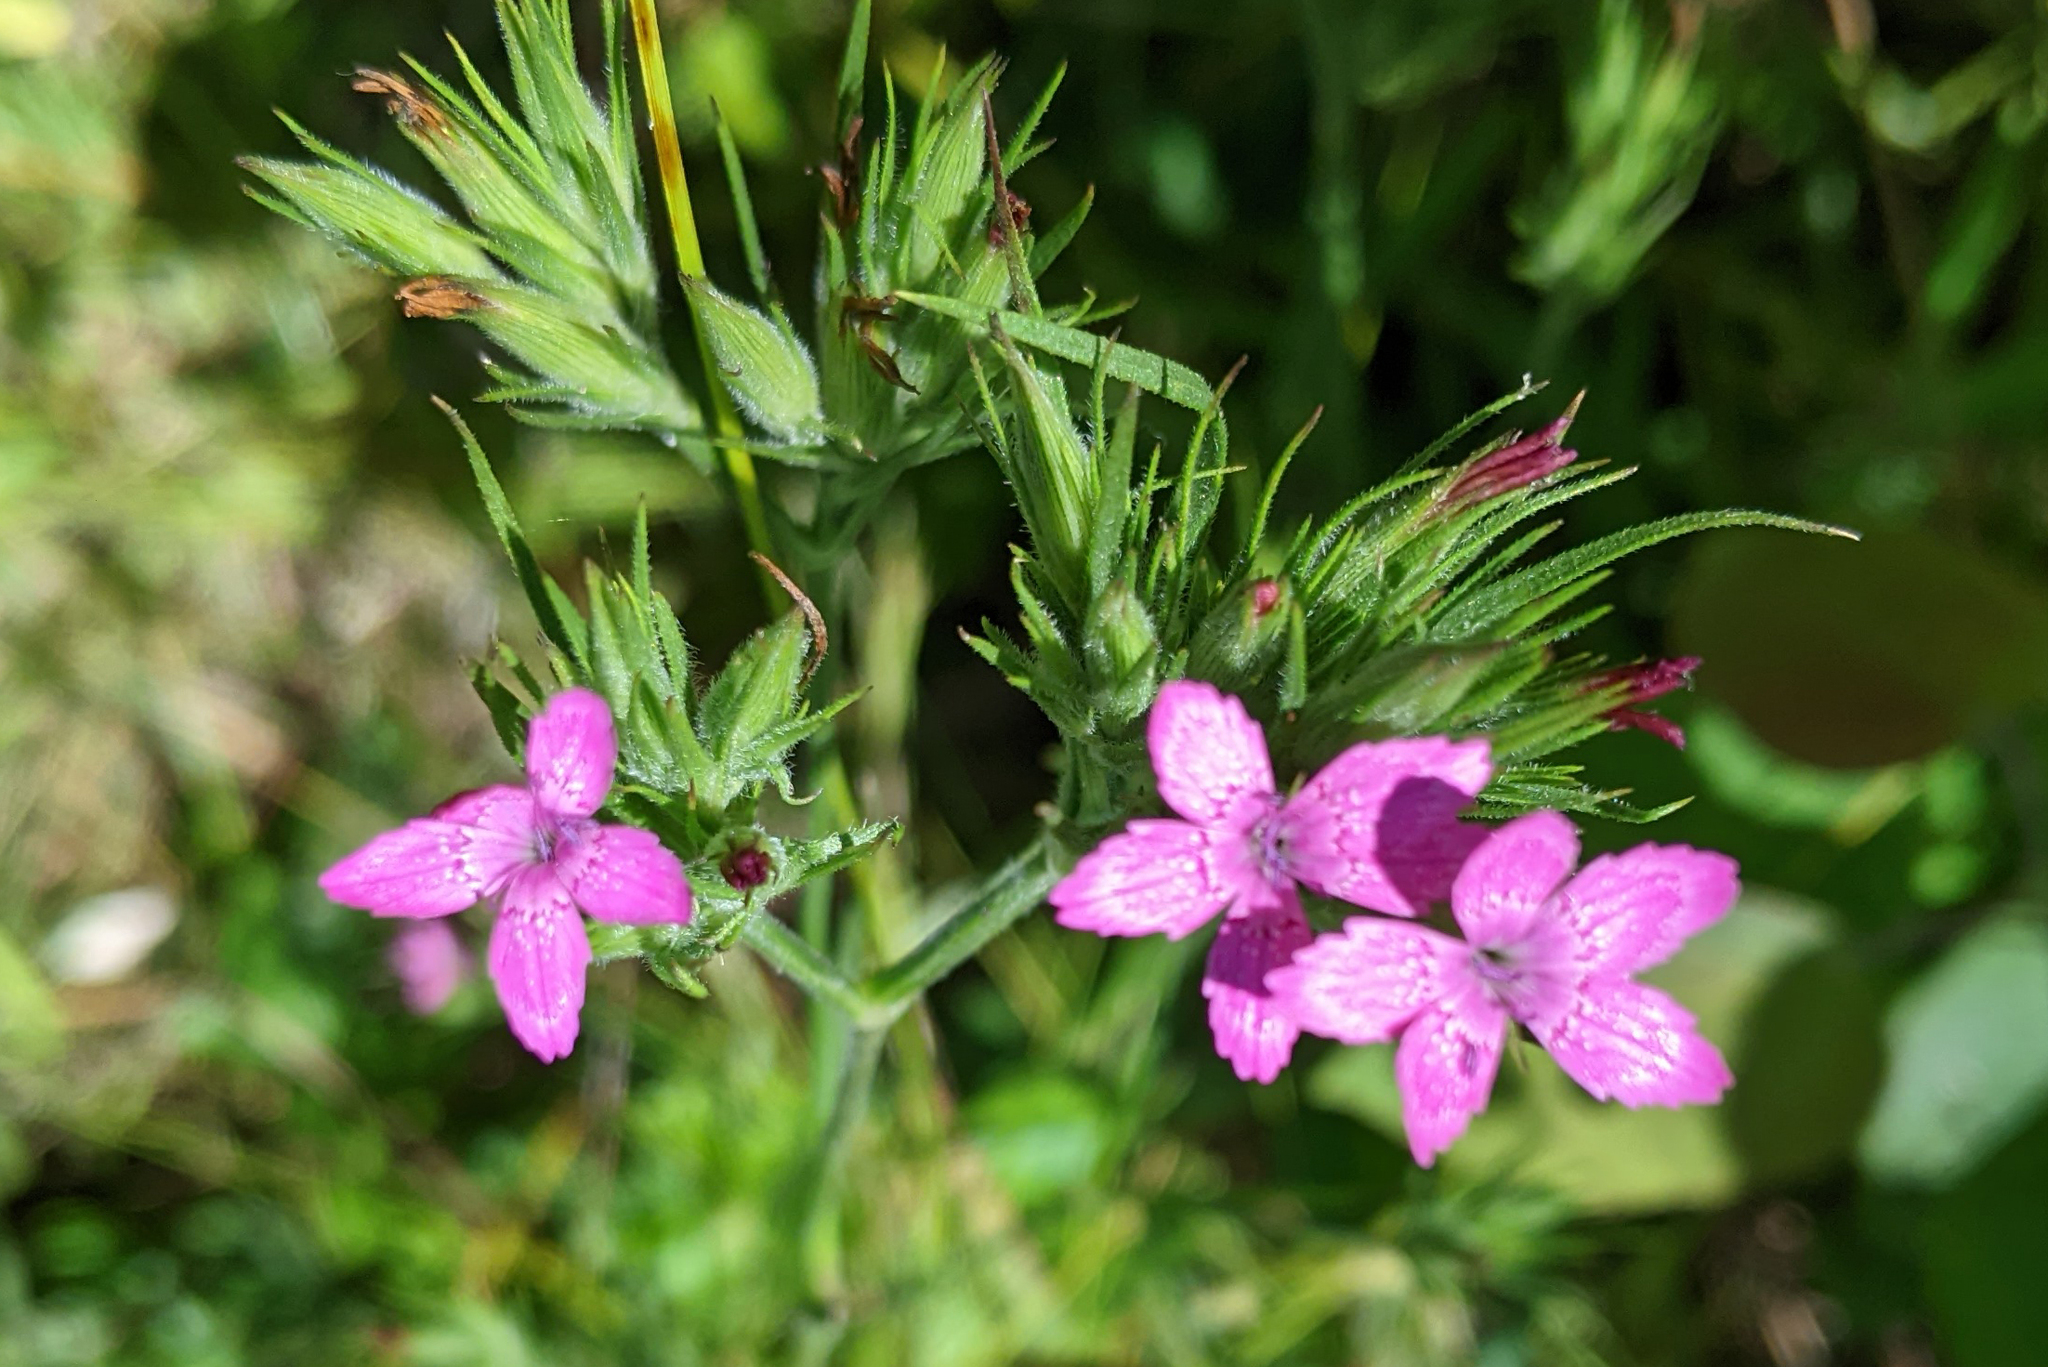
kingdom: Plantae
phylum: Tracheophyta
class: Magnoliopsida
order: Caryophyllales
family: Caryophyllaceae
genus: Dianthus
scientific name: Dianthus armeria
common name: Deptford pink
